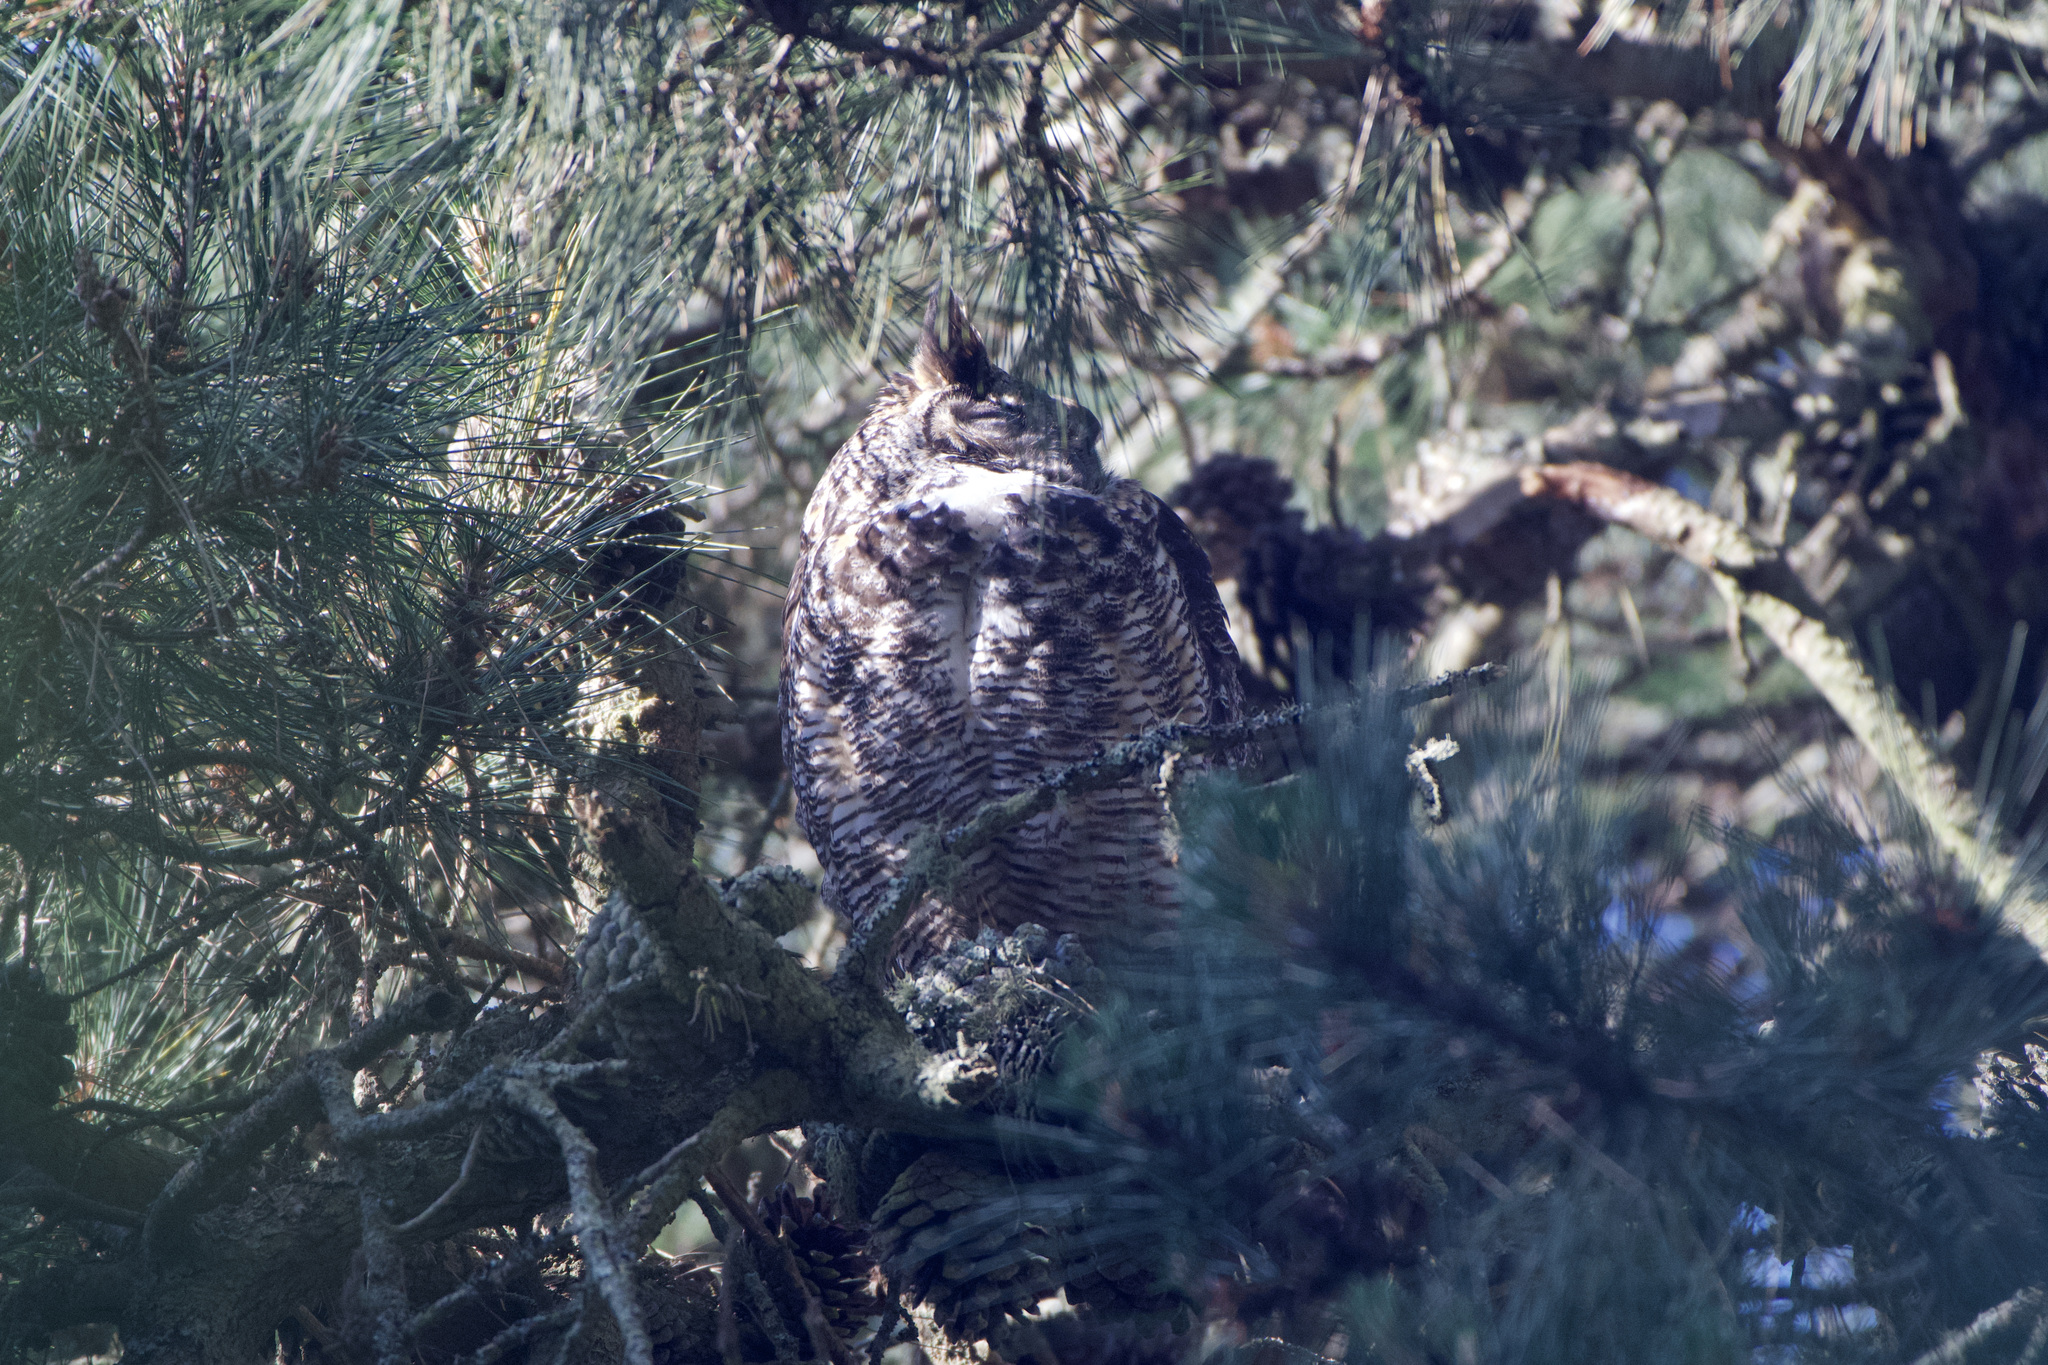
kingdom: Animalia
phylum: Chordata
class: Aves
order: Strigiformes
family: Strigidae
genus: Bubo
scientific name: Bubo virginianus
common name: Great horned owl
